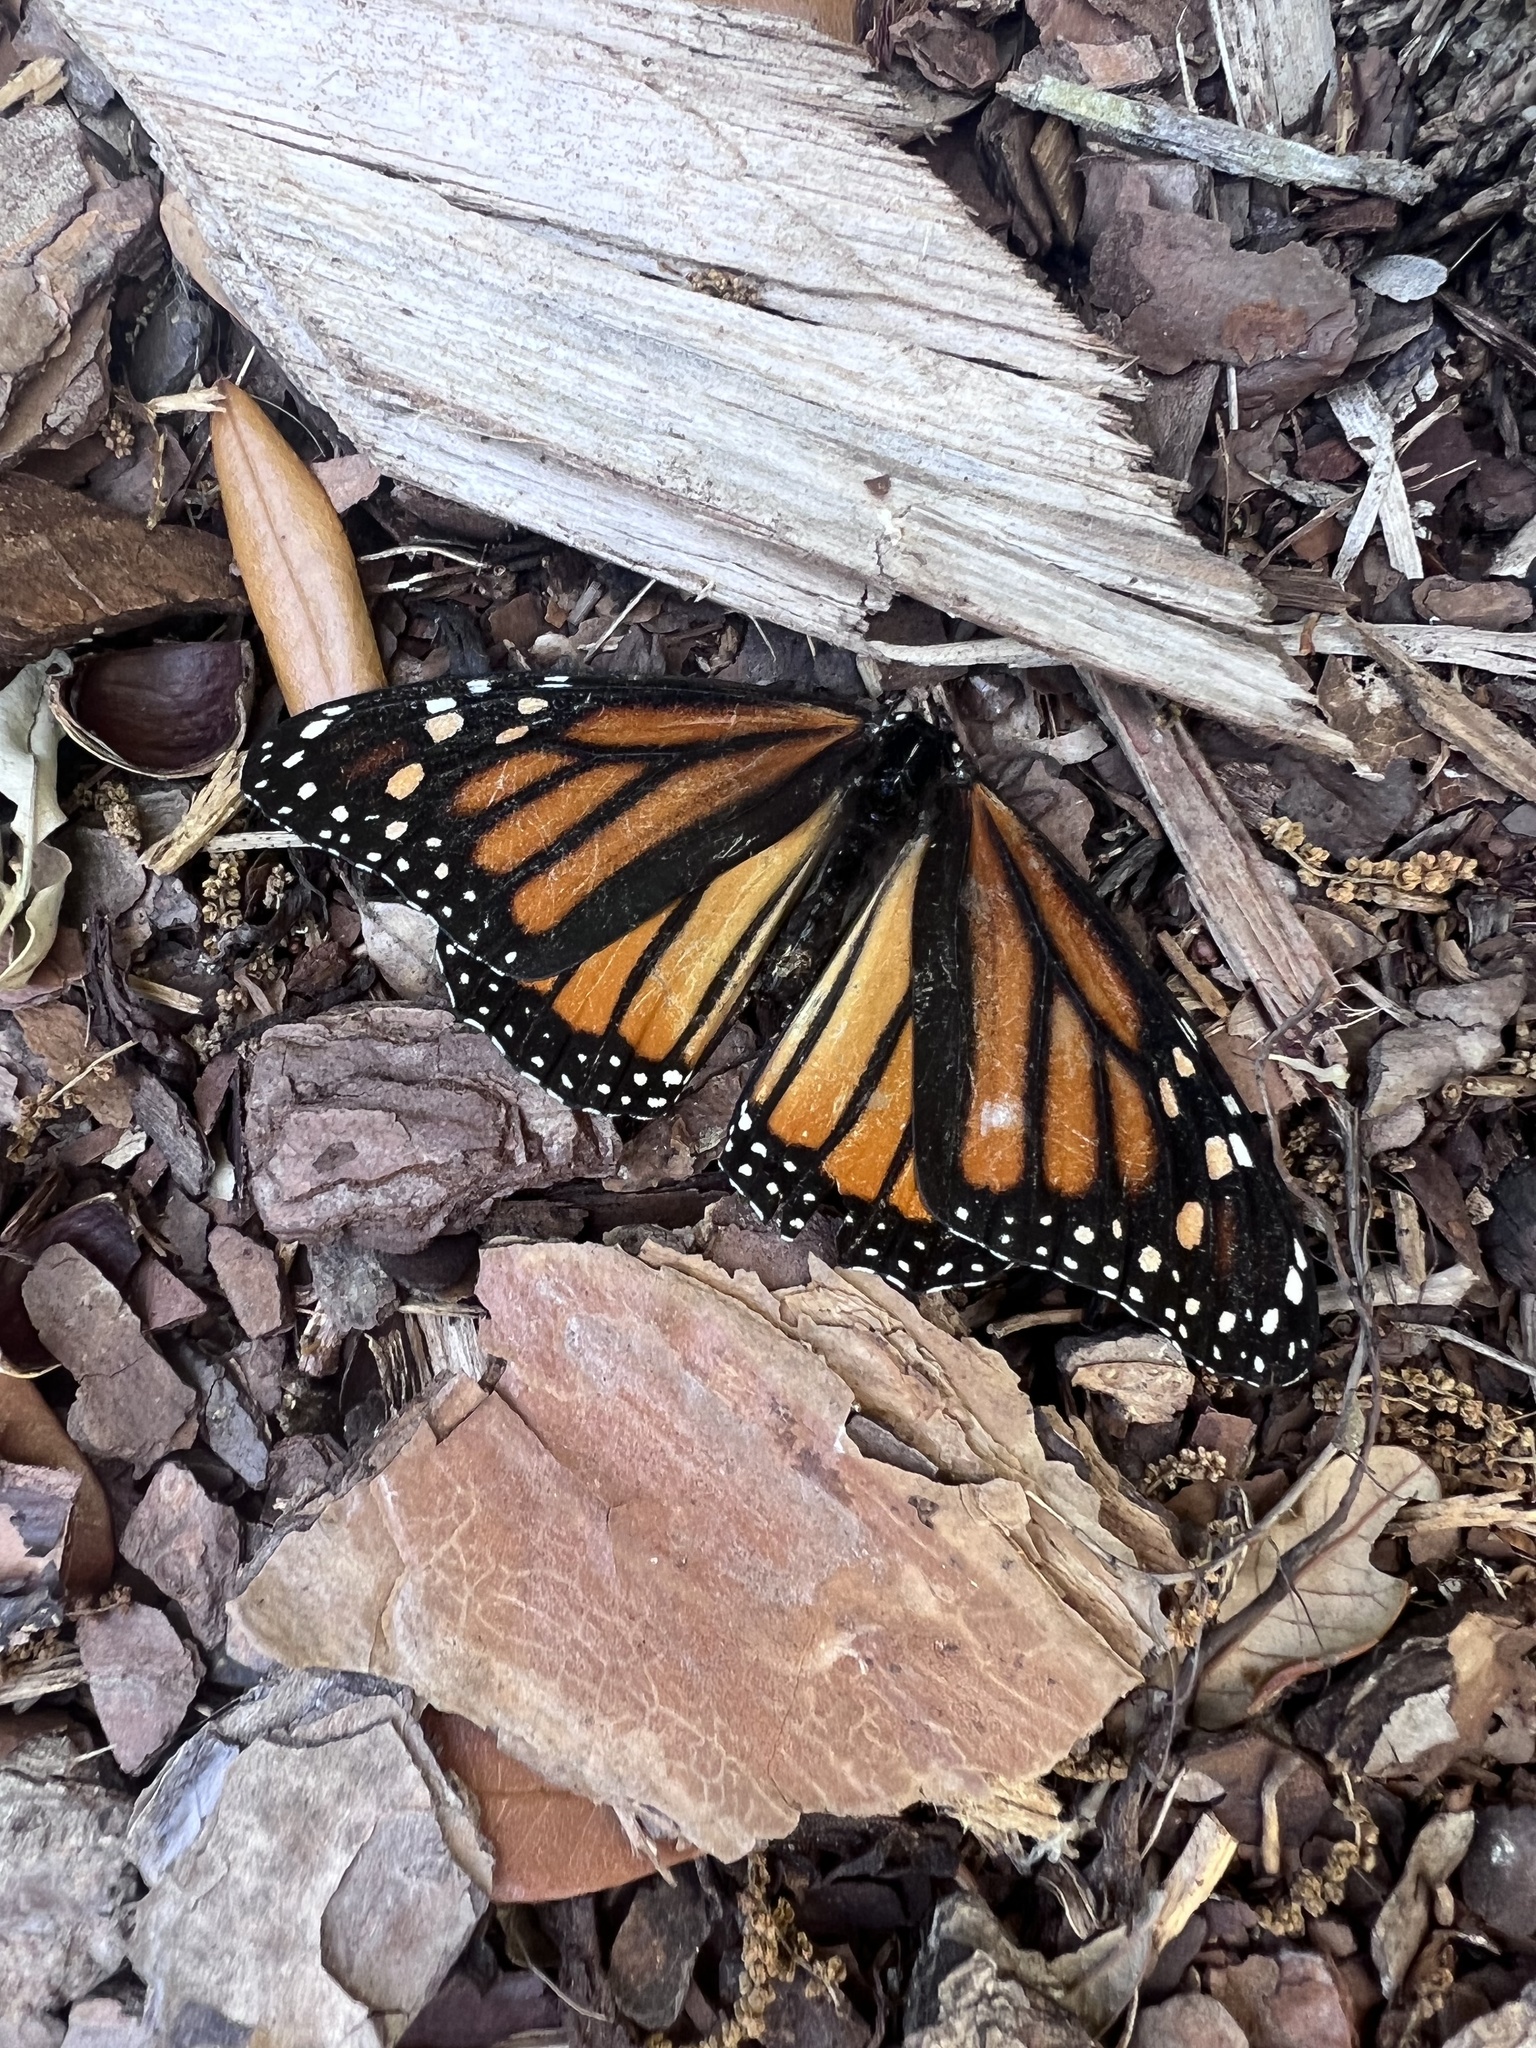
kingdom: Animalia
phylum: Arthropoda
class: Insecta
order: Lepidoptera
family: Nymphalidae
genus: Danaus
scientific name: Danaus plexippus
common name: Monarch
